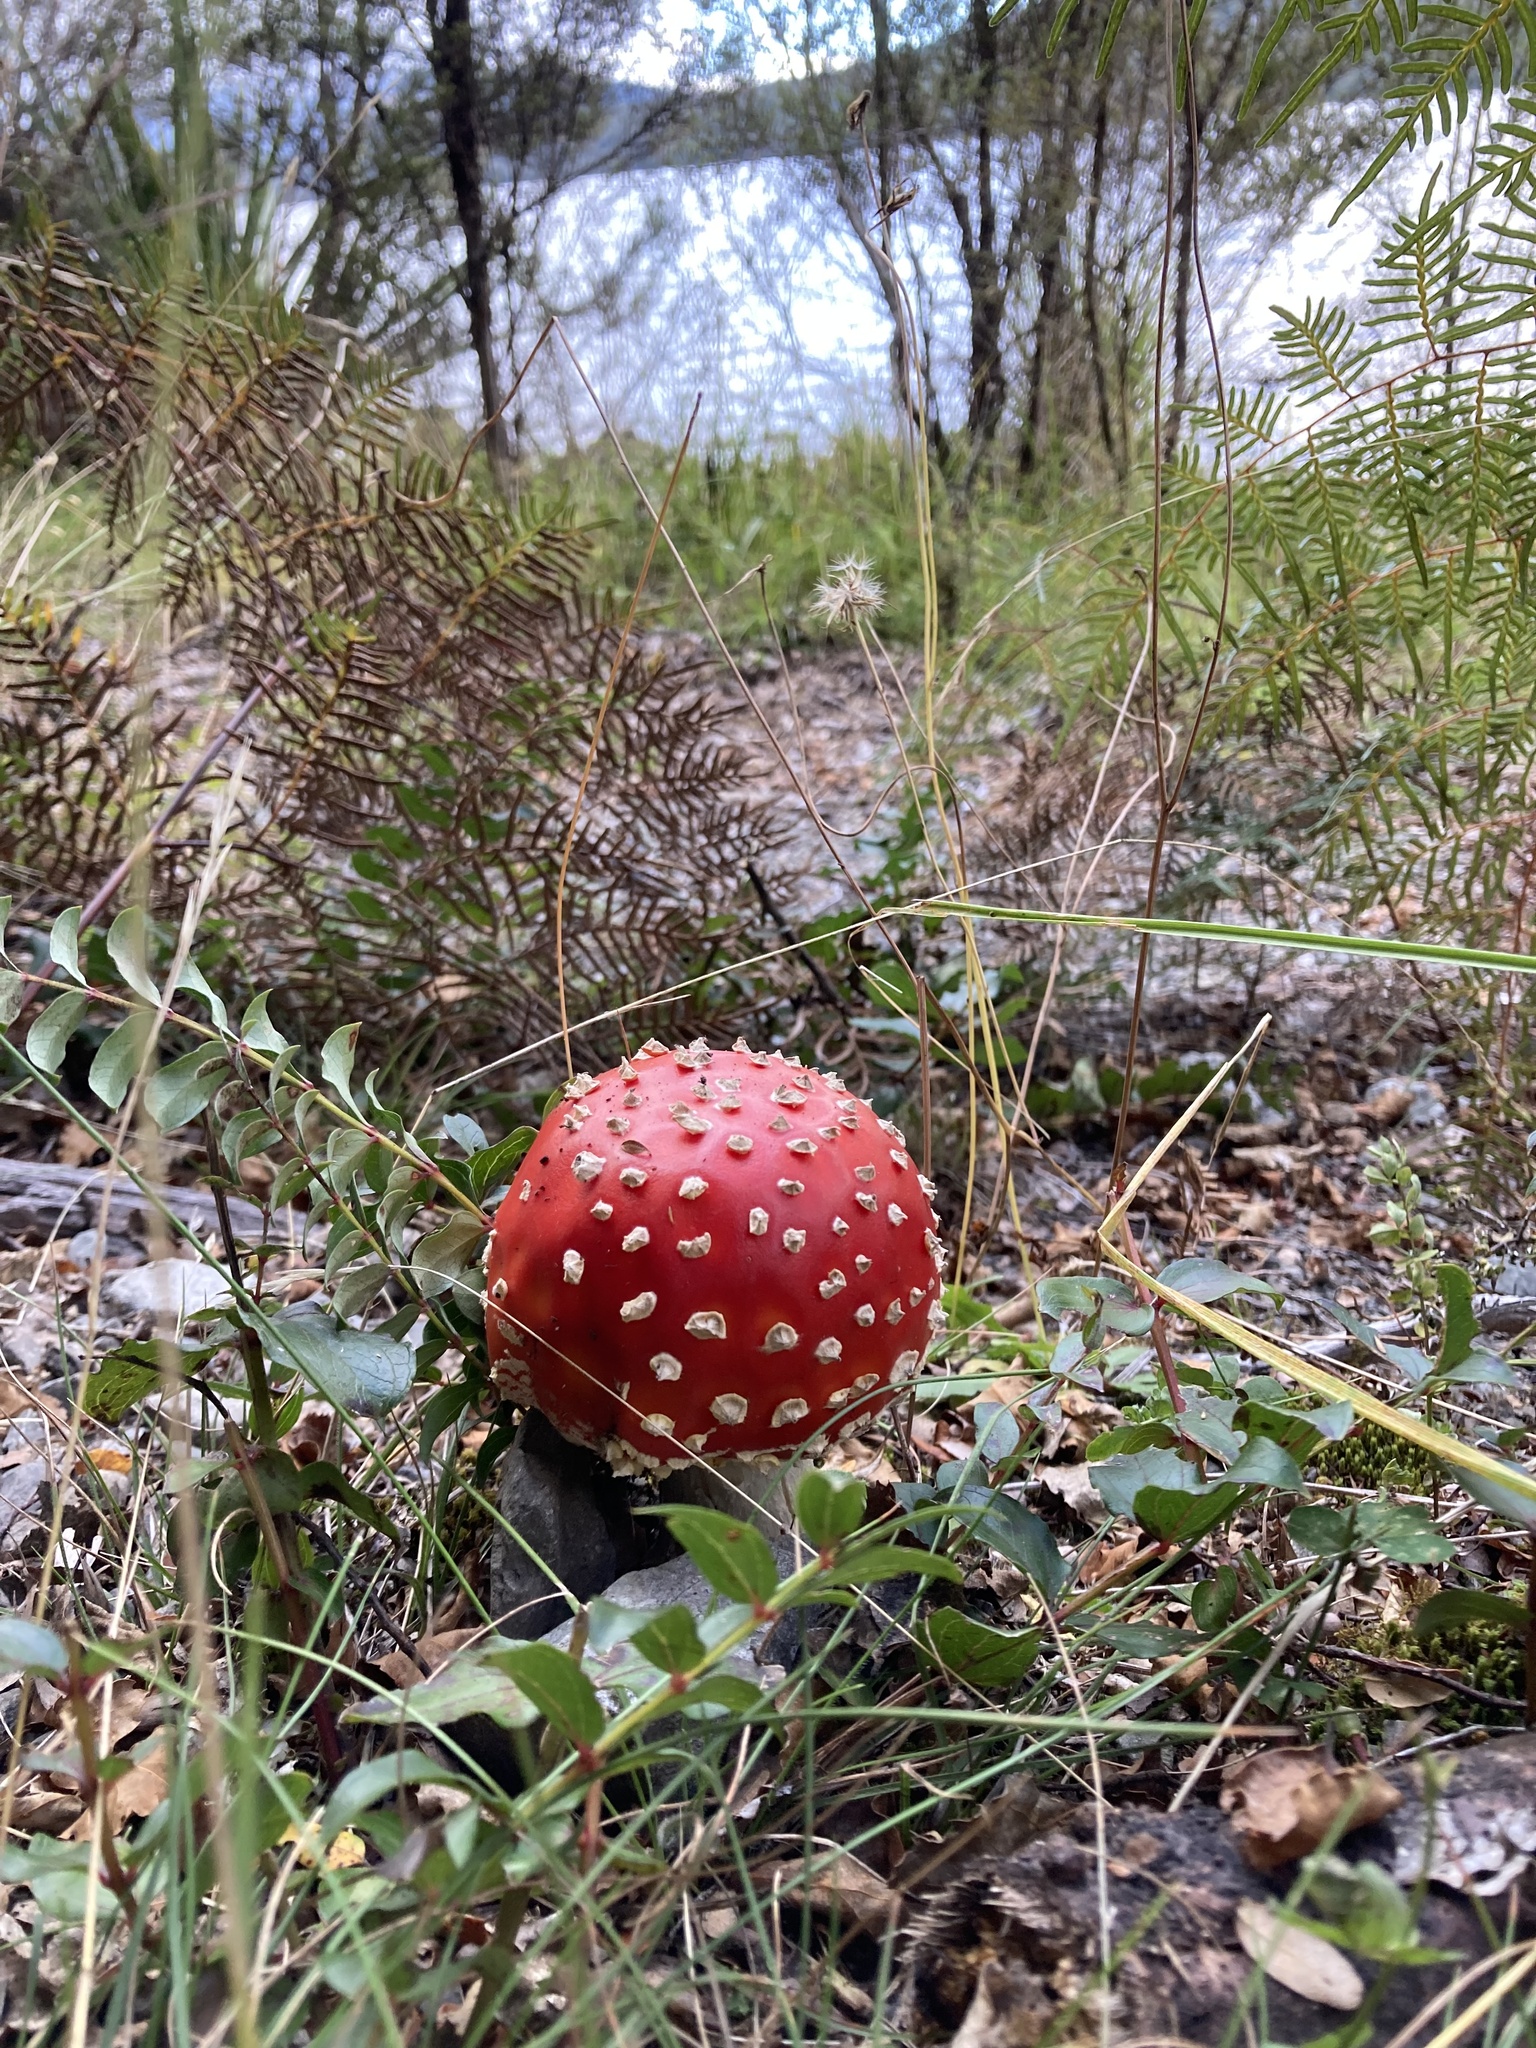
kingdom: Fungi
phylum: Basidiomycota
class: Agaricomycetes
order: Agaricales
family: Amanitaceae
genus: Amanita
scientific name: Amanita muscaria
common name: Fly agaric
